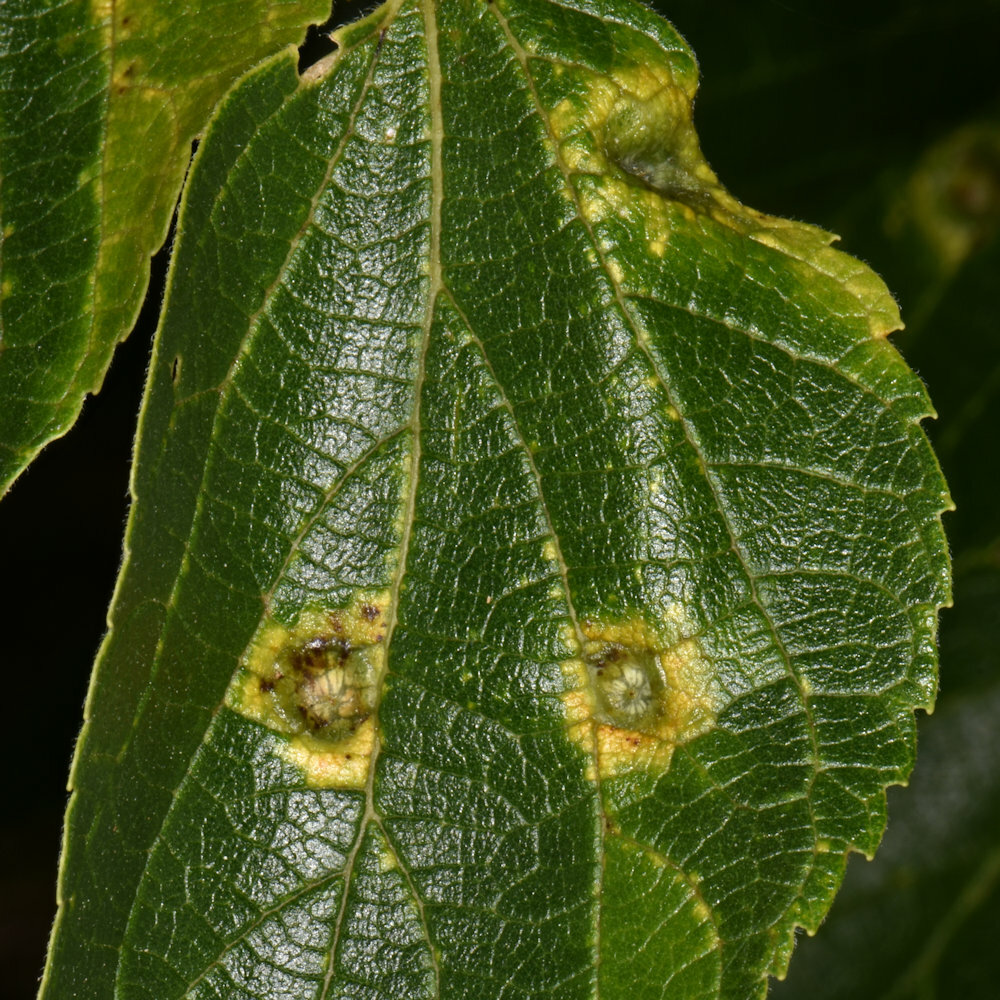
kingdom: Animalia
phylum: Arthropoda
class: Insecta
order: Hemiptera
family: Aphalaridae
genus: Pachypsylla
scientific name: Pachypsylla celtidismamma
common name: Hackberry nipplegall psyllid
